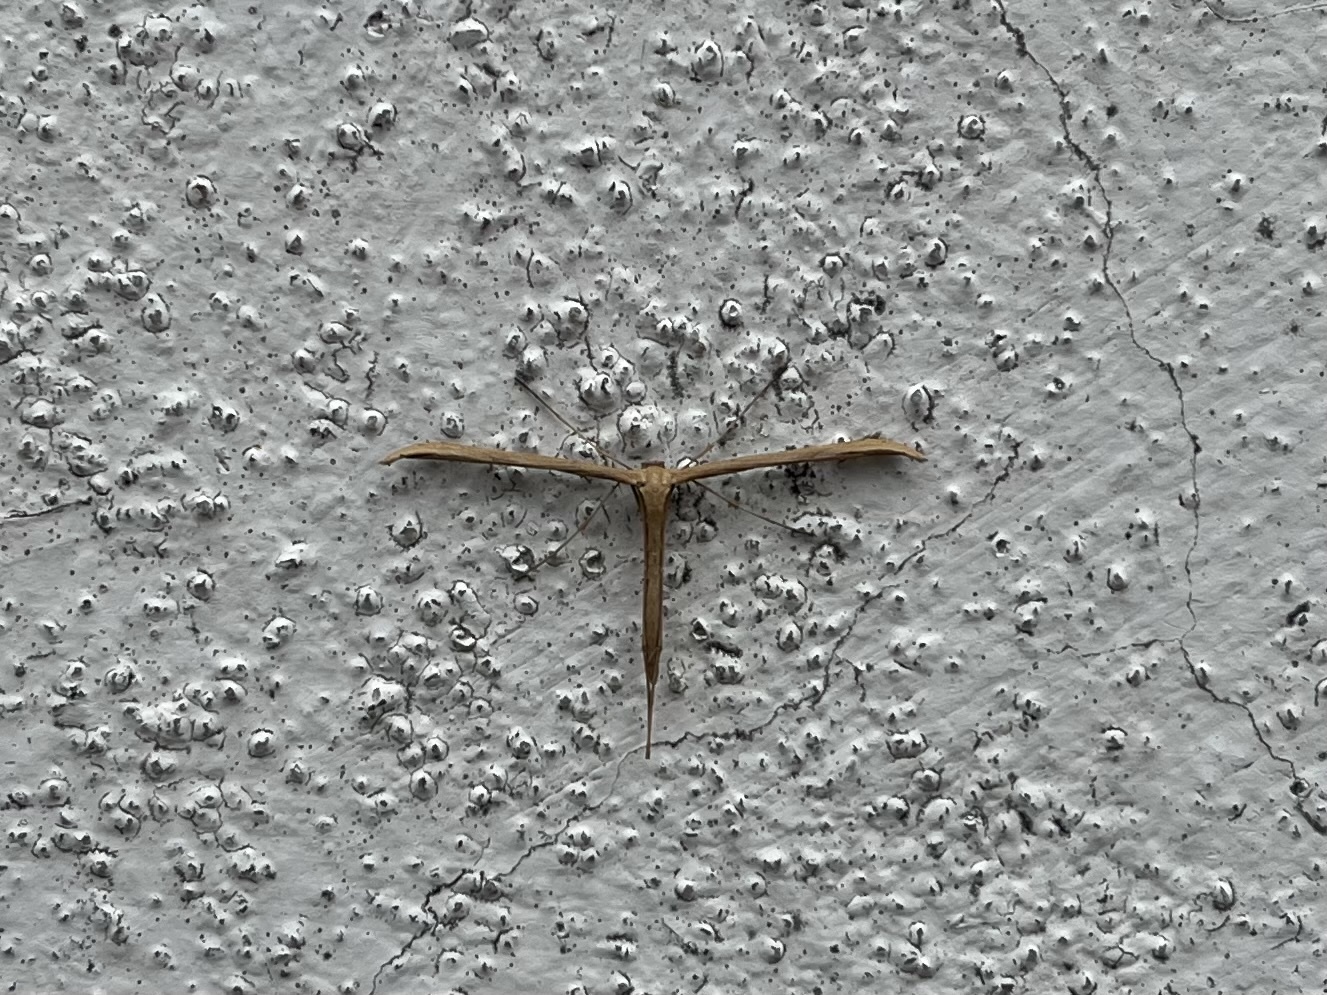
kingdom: Animalia
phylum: Arthropoda
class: Insecta
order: Lepidoptera
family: Pterophoridae
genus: Emmelina
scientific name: Emmelina monodactyla
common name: Common plume
